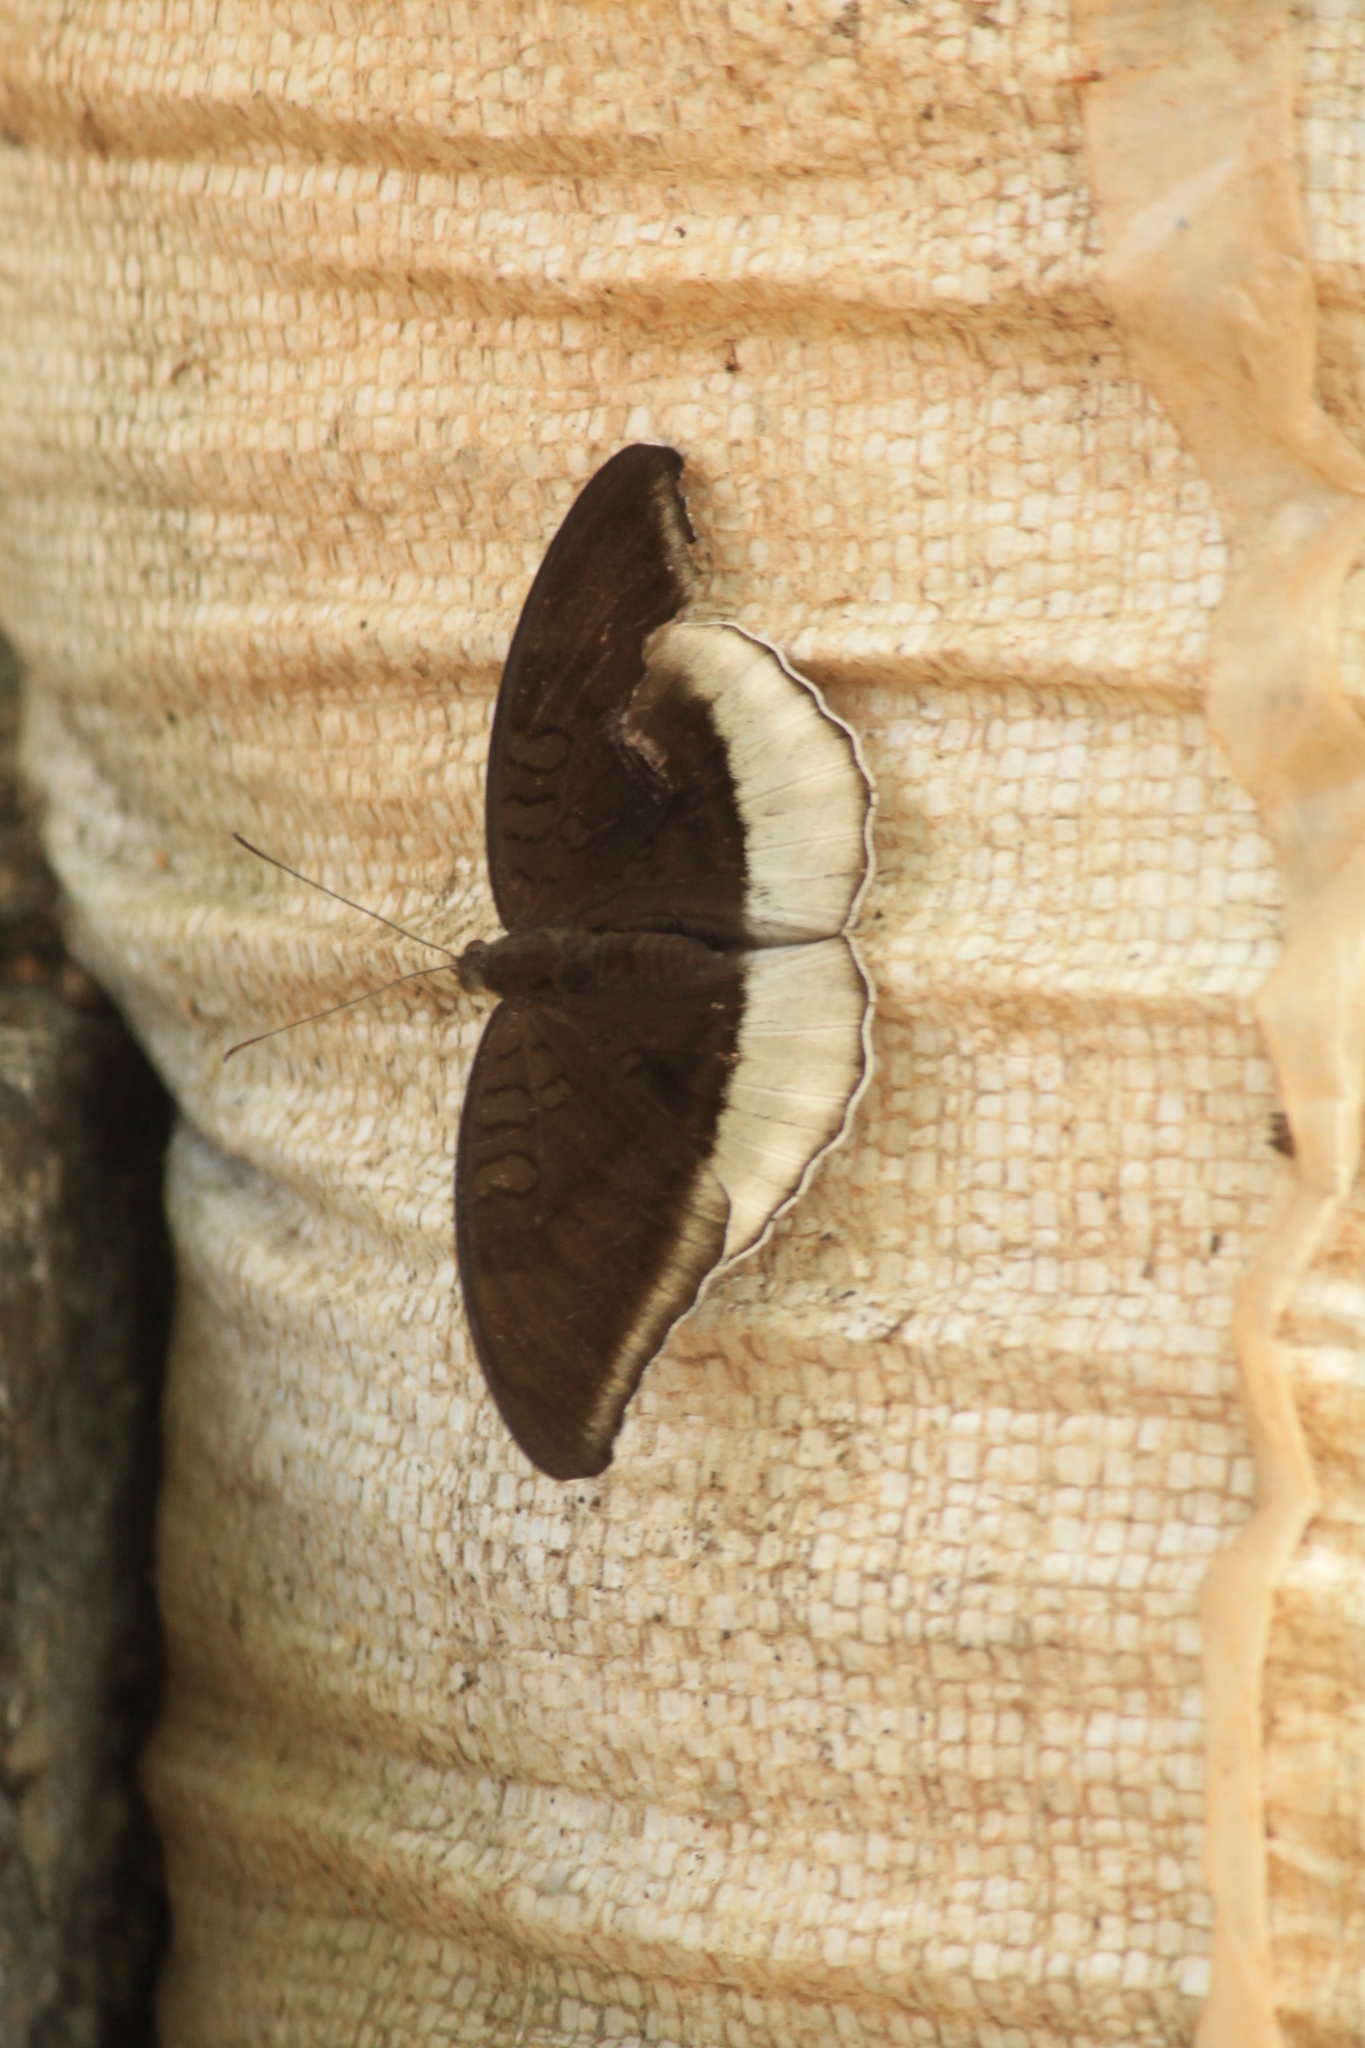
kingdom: Animalia
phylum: Arthropoda
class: Insecta
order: Lepidoptera
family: Nymphalidae
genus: Tanaecia
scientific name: Tanaecia lepidea
